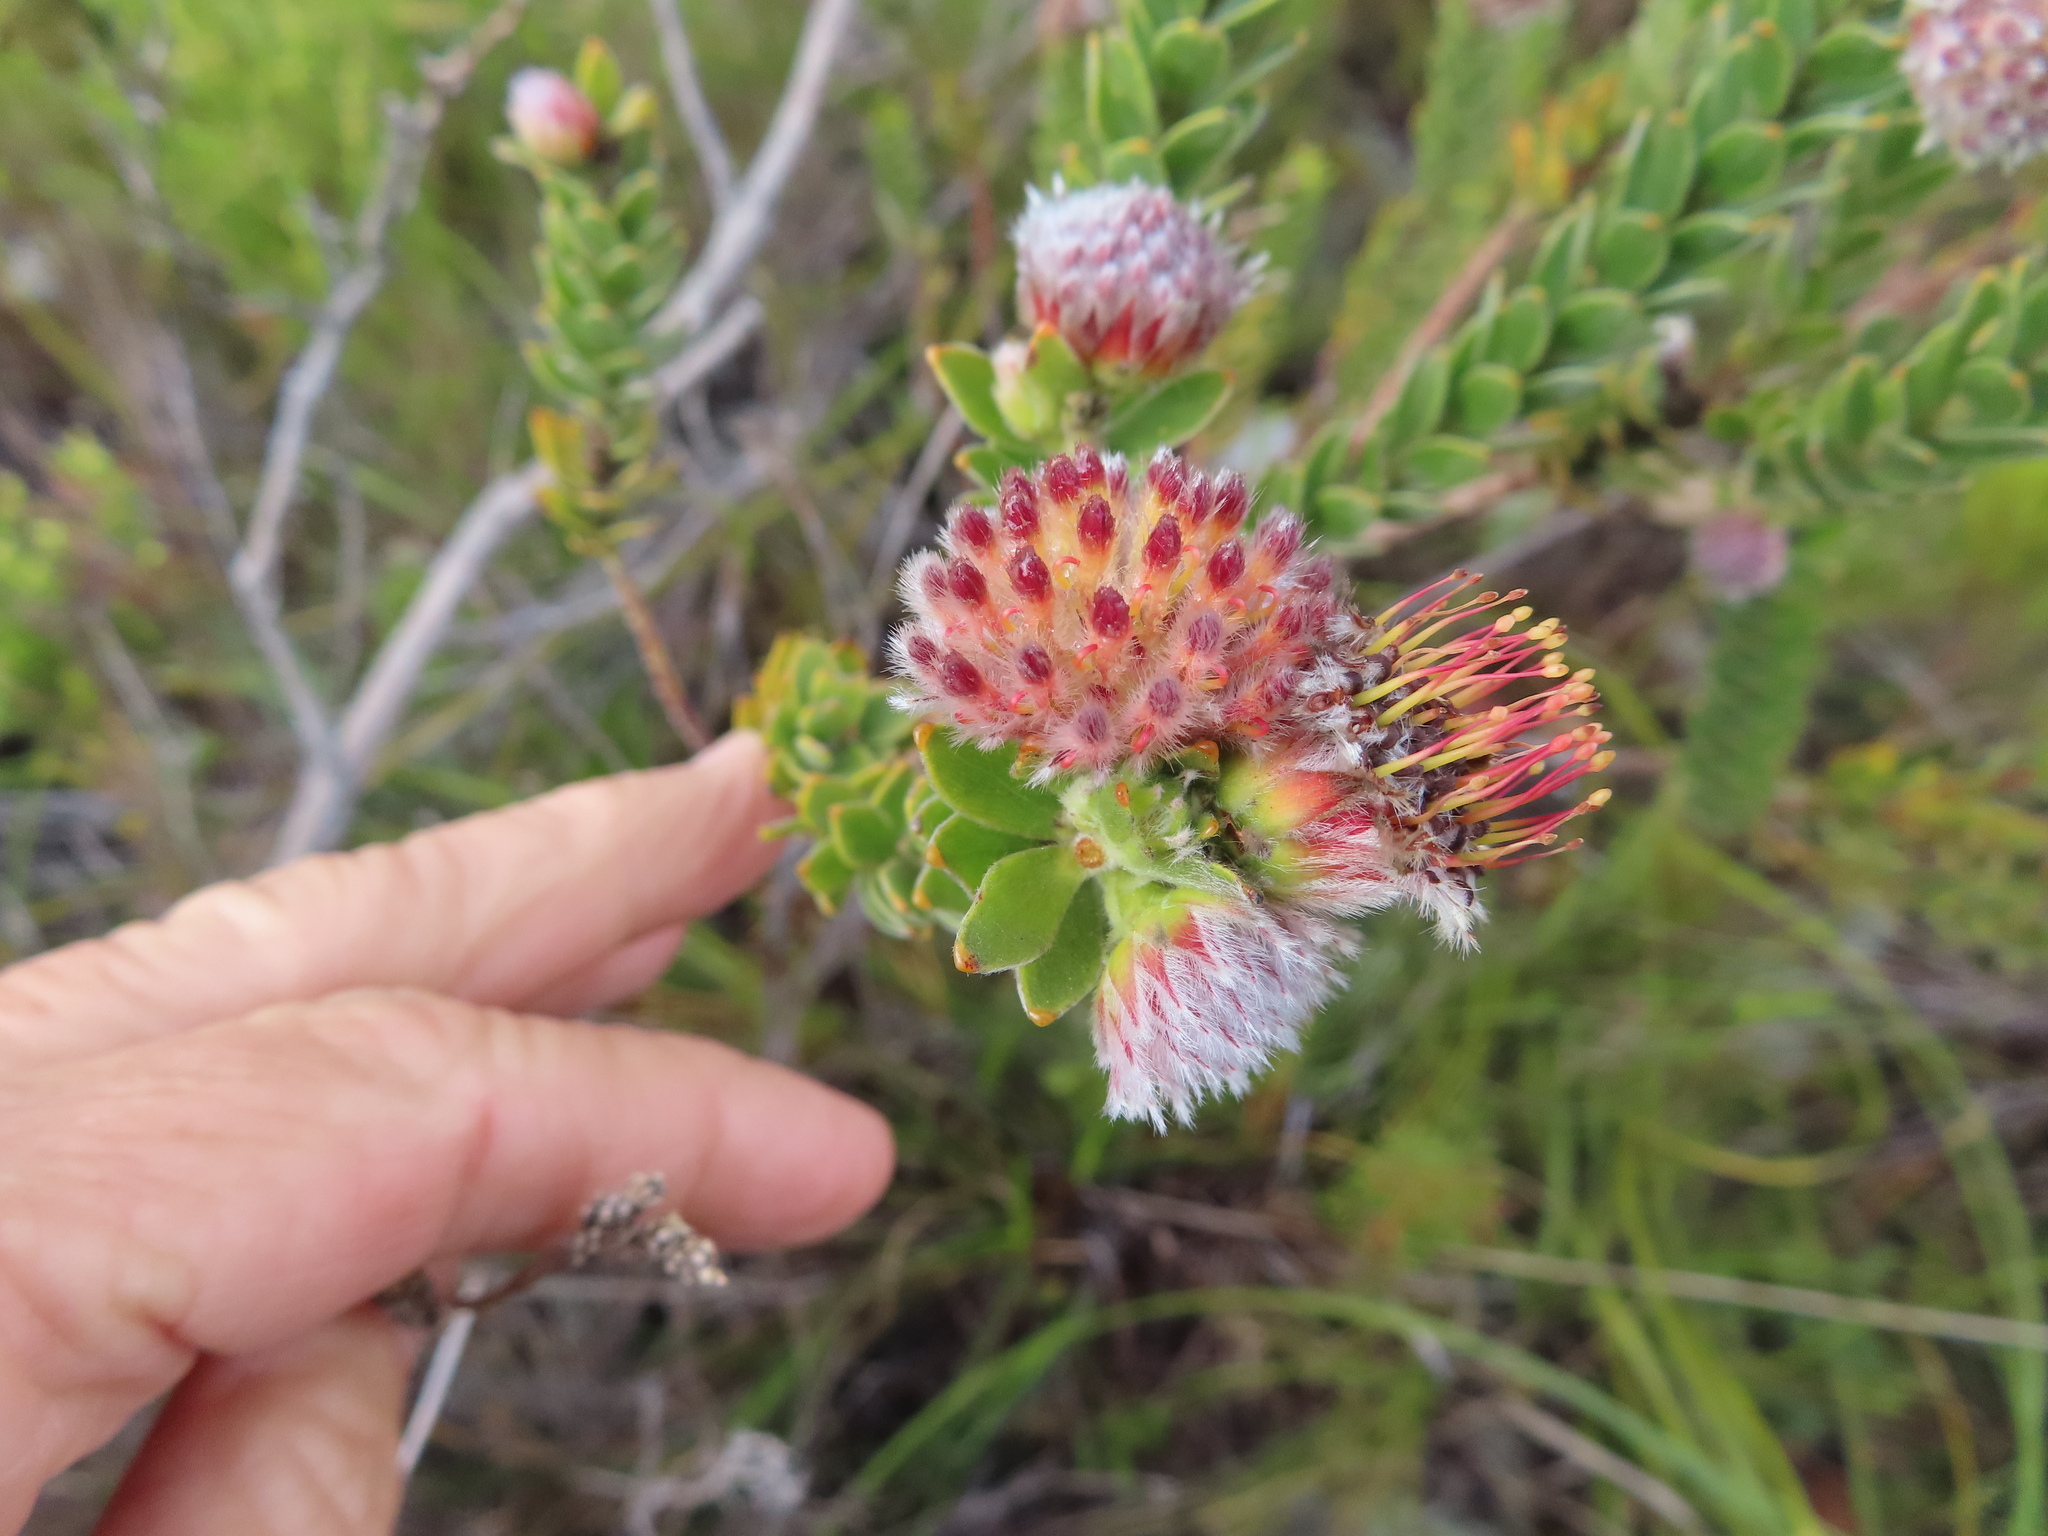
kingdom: Plantae
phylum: Tracheophyta
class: Magnoliopsida
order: Proteales
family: Proteaceae
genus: Leucospermum
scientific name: Leucospermum truncatulum
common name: Oval-leaf pincushion
